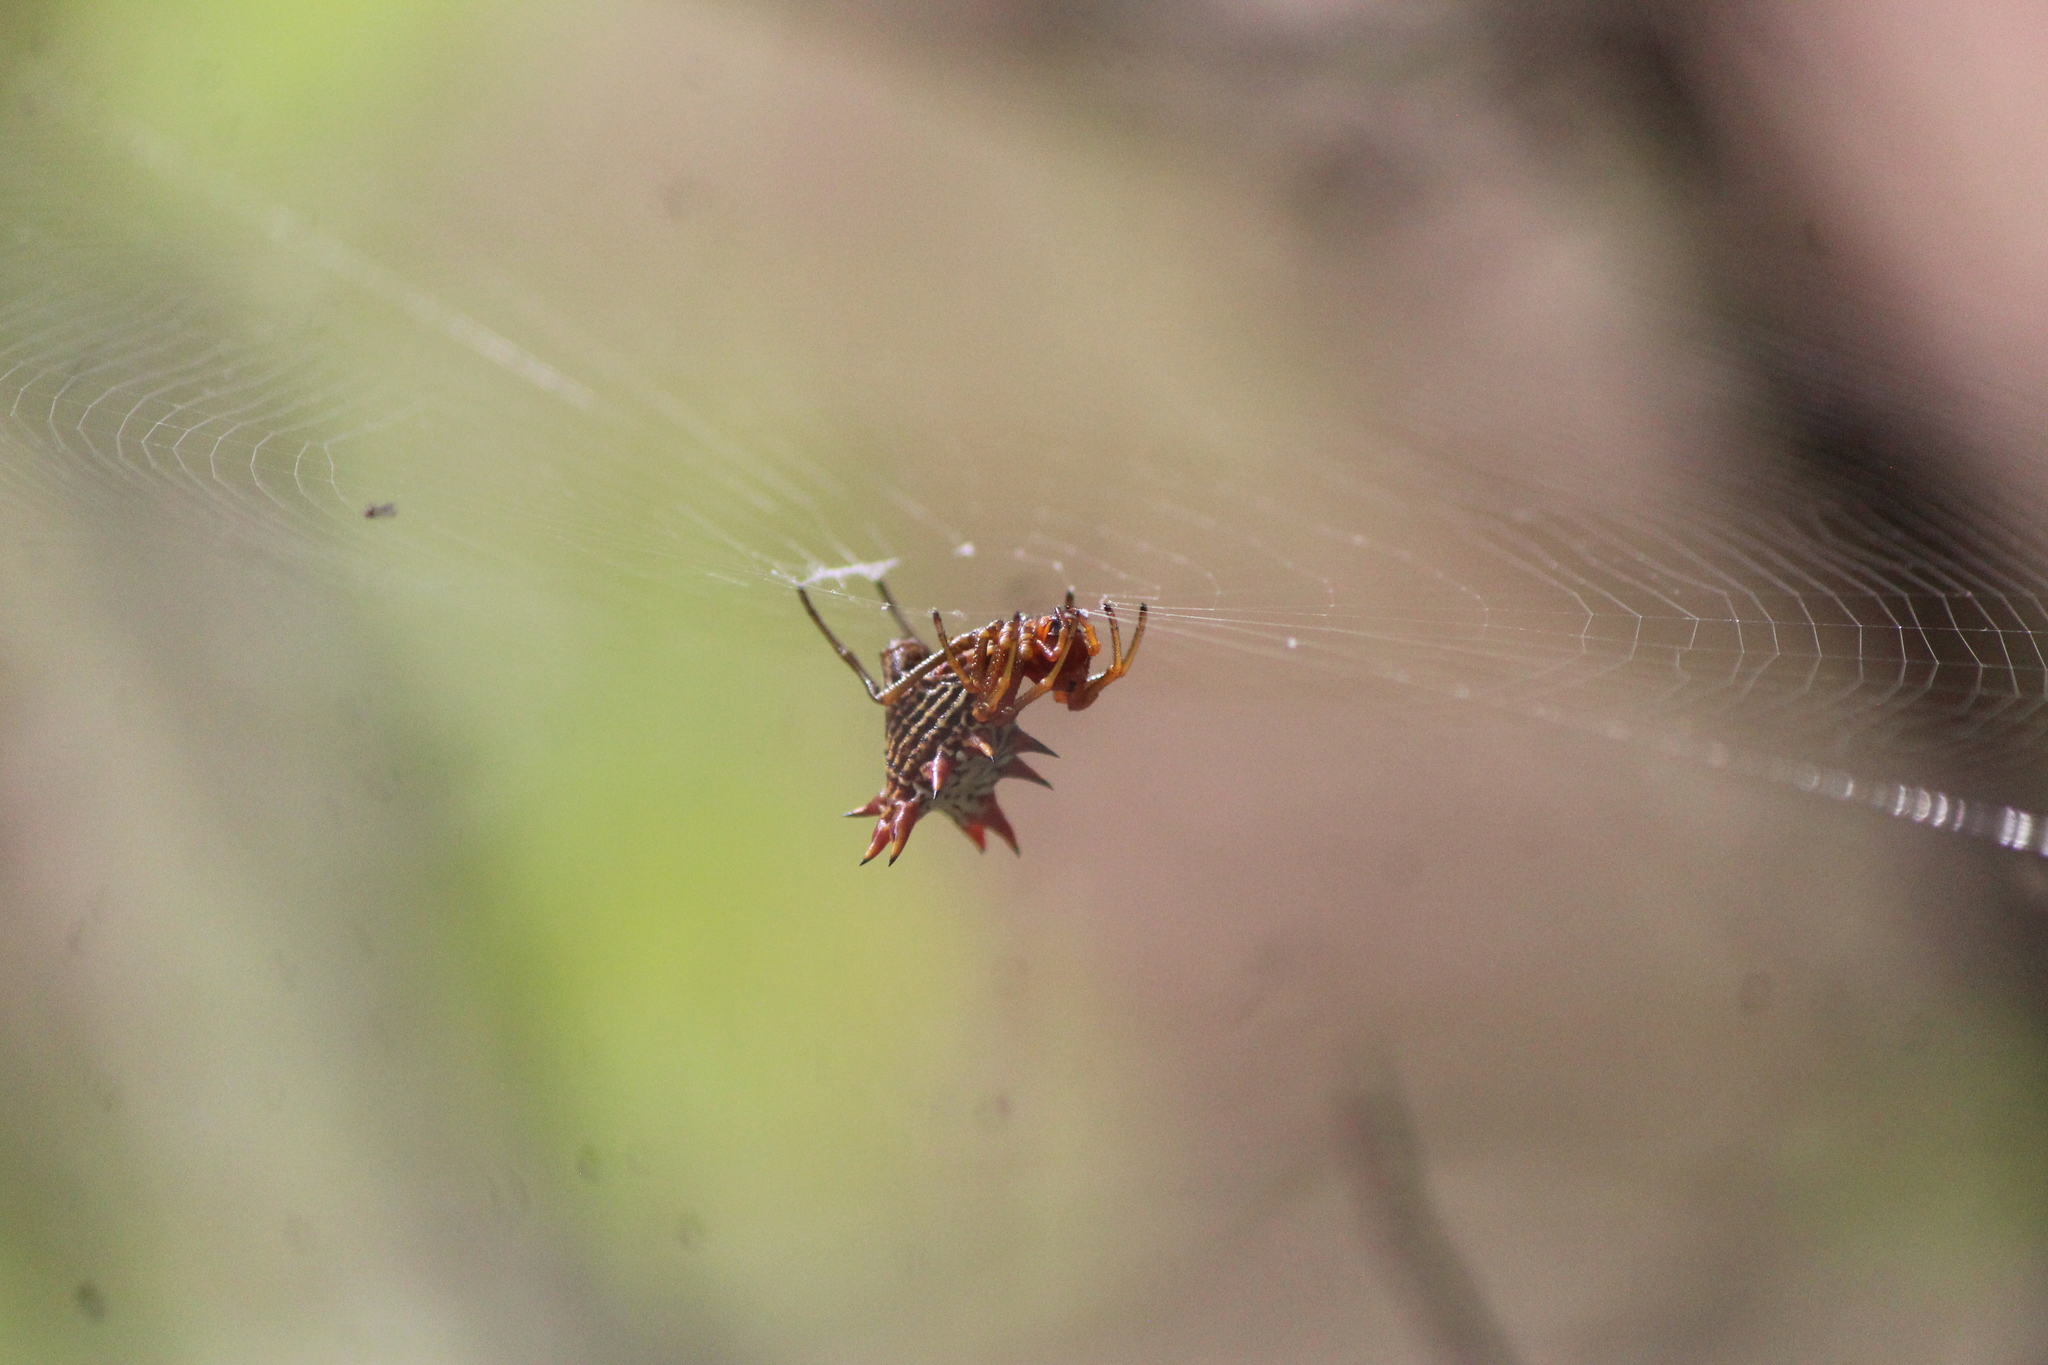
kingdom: Animalia
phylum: Arthropoda
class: Arachnida
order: Araneae
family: Araneidae
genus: Micrathena
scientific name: Micrathena gracilis
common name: Orb weavers
